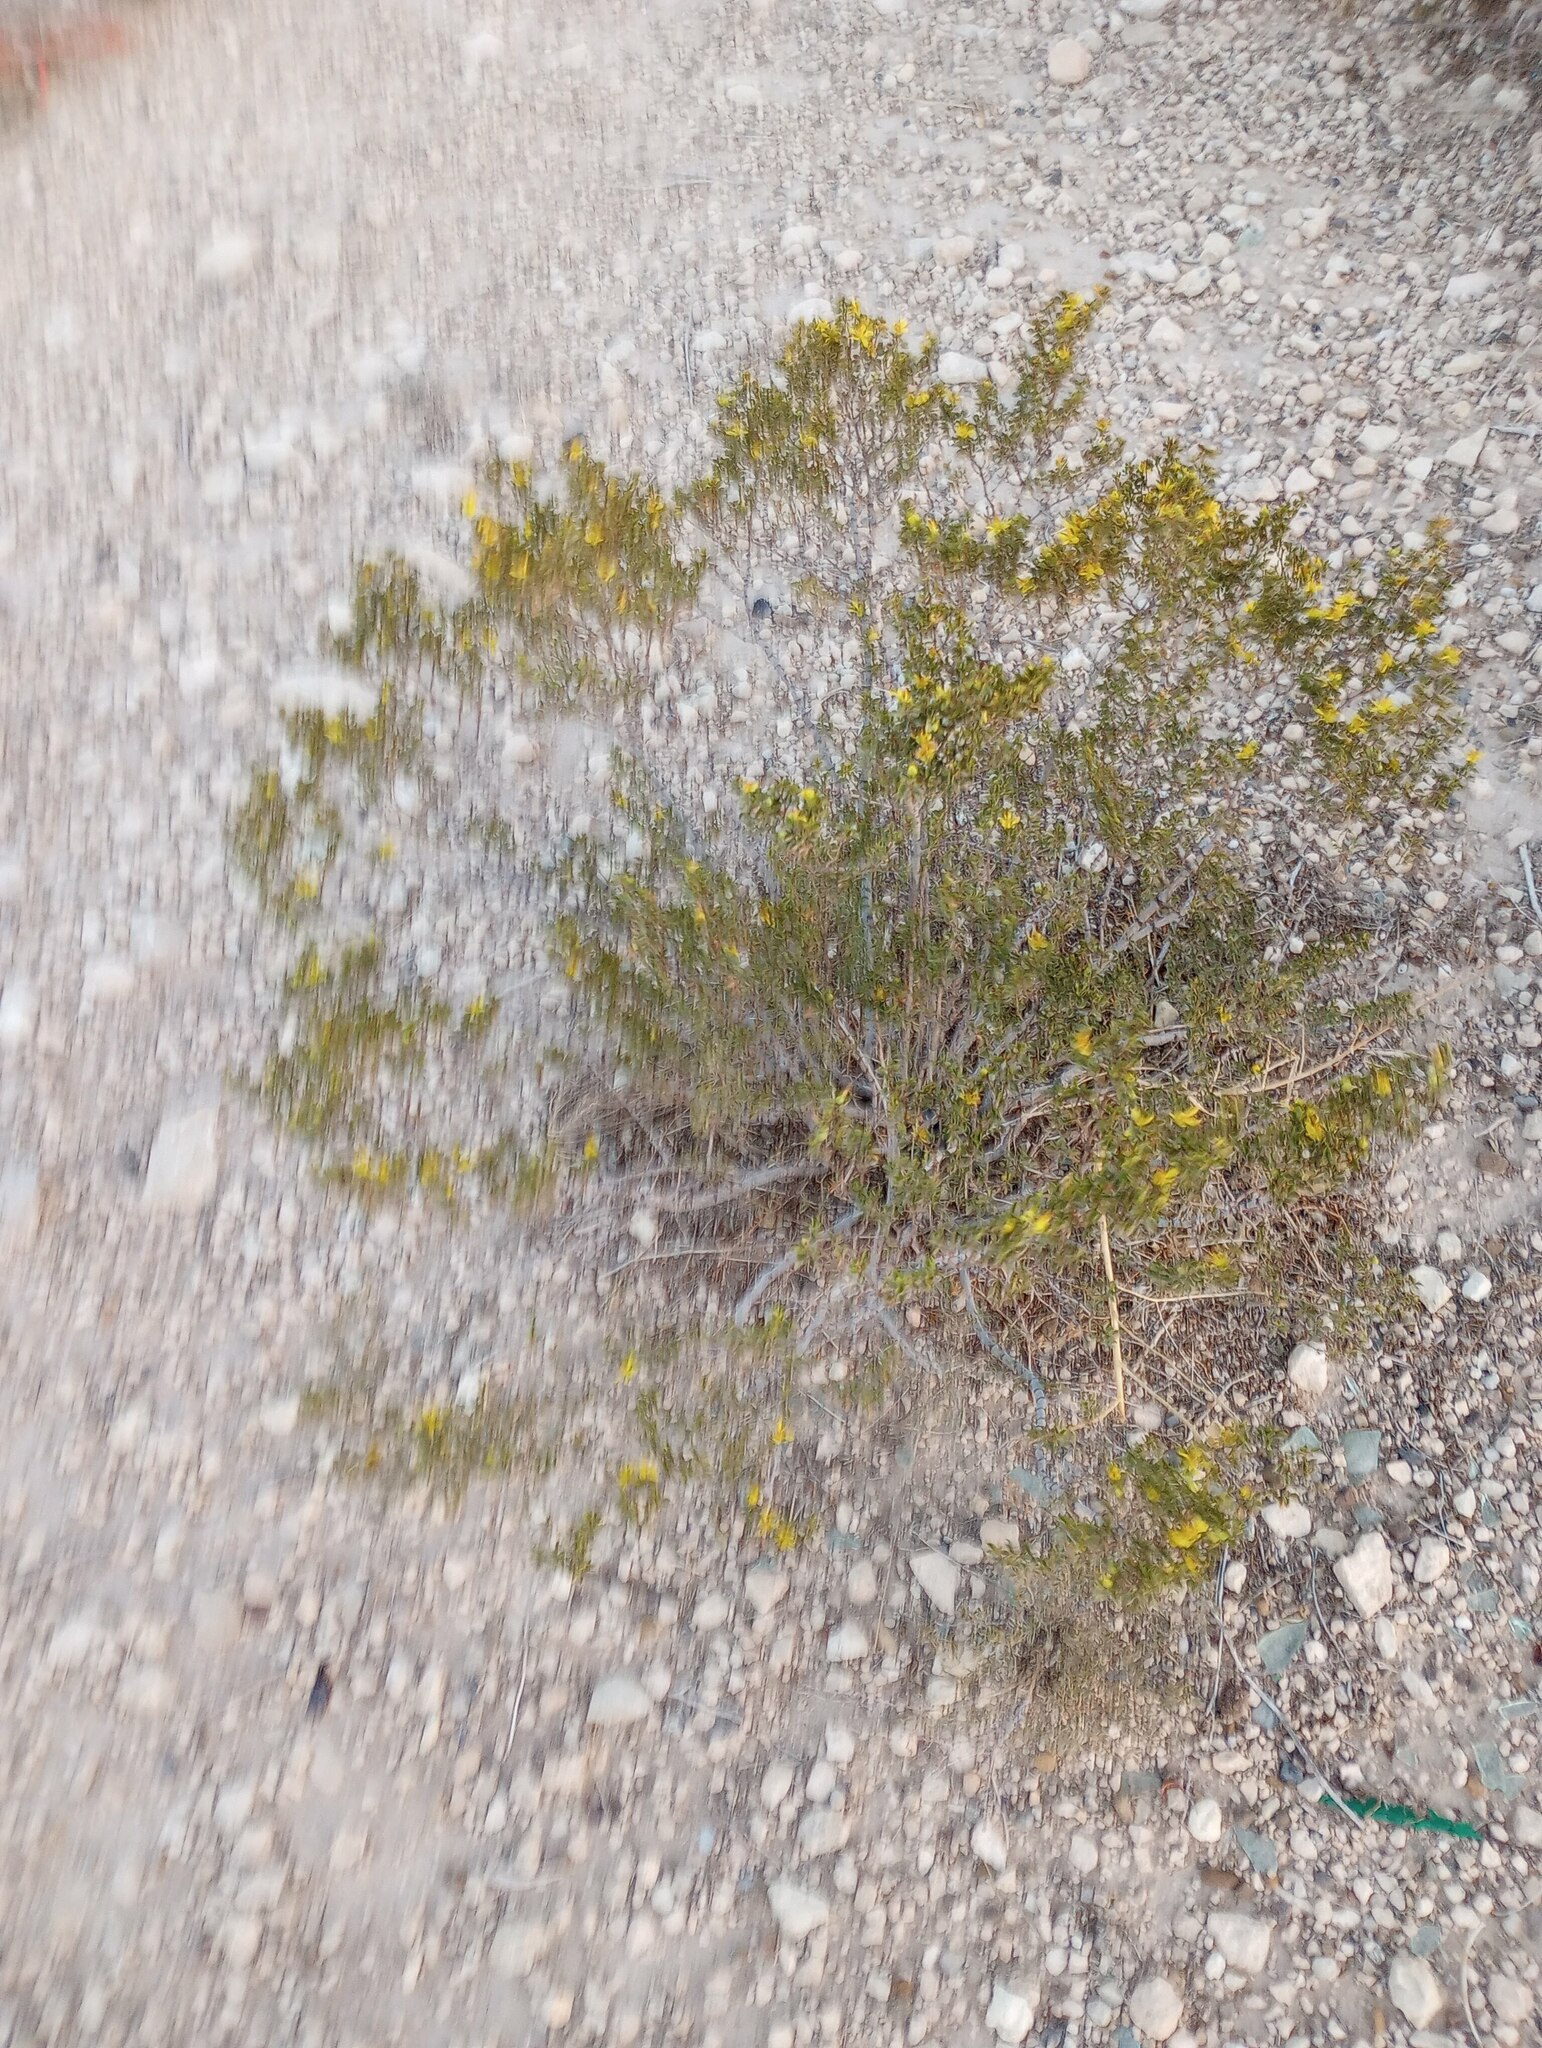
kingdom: Plantae
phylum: Tracheophyta
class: Magnoliopsida
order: Zygophyllales
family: Zygophyllaceae
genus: Larrea
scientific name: Larrea tridentata
